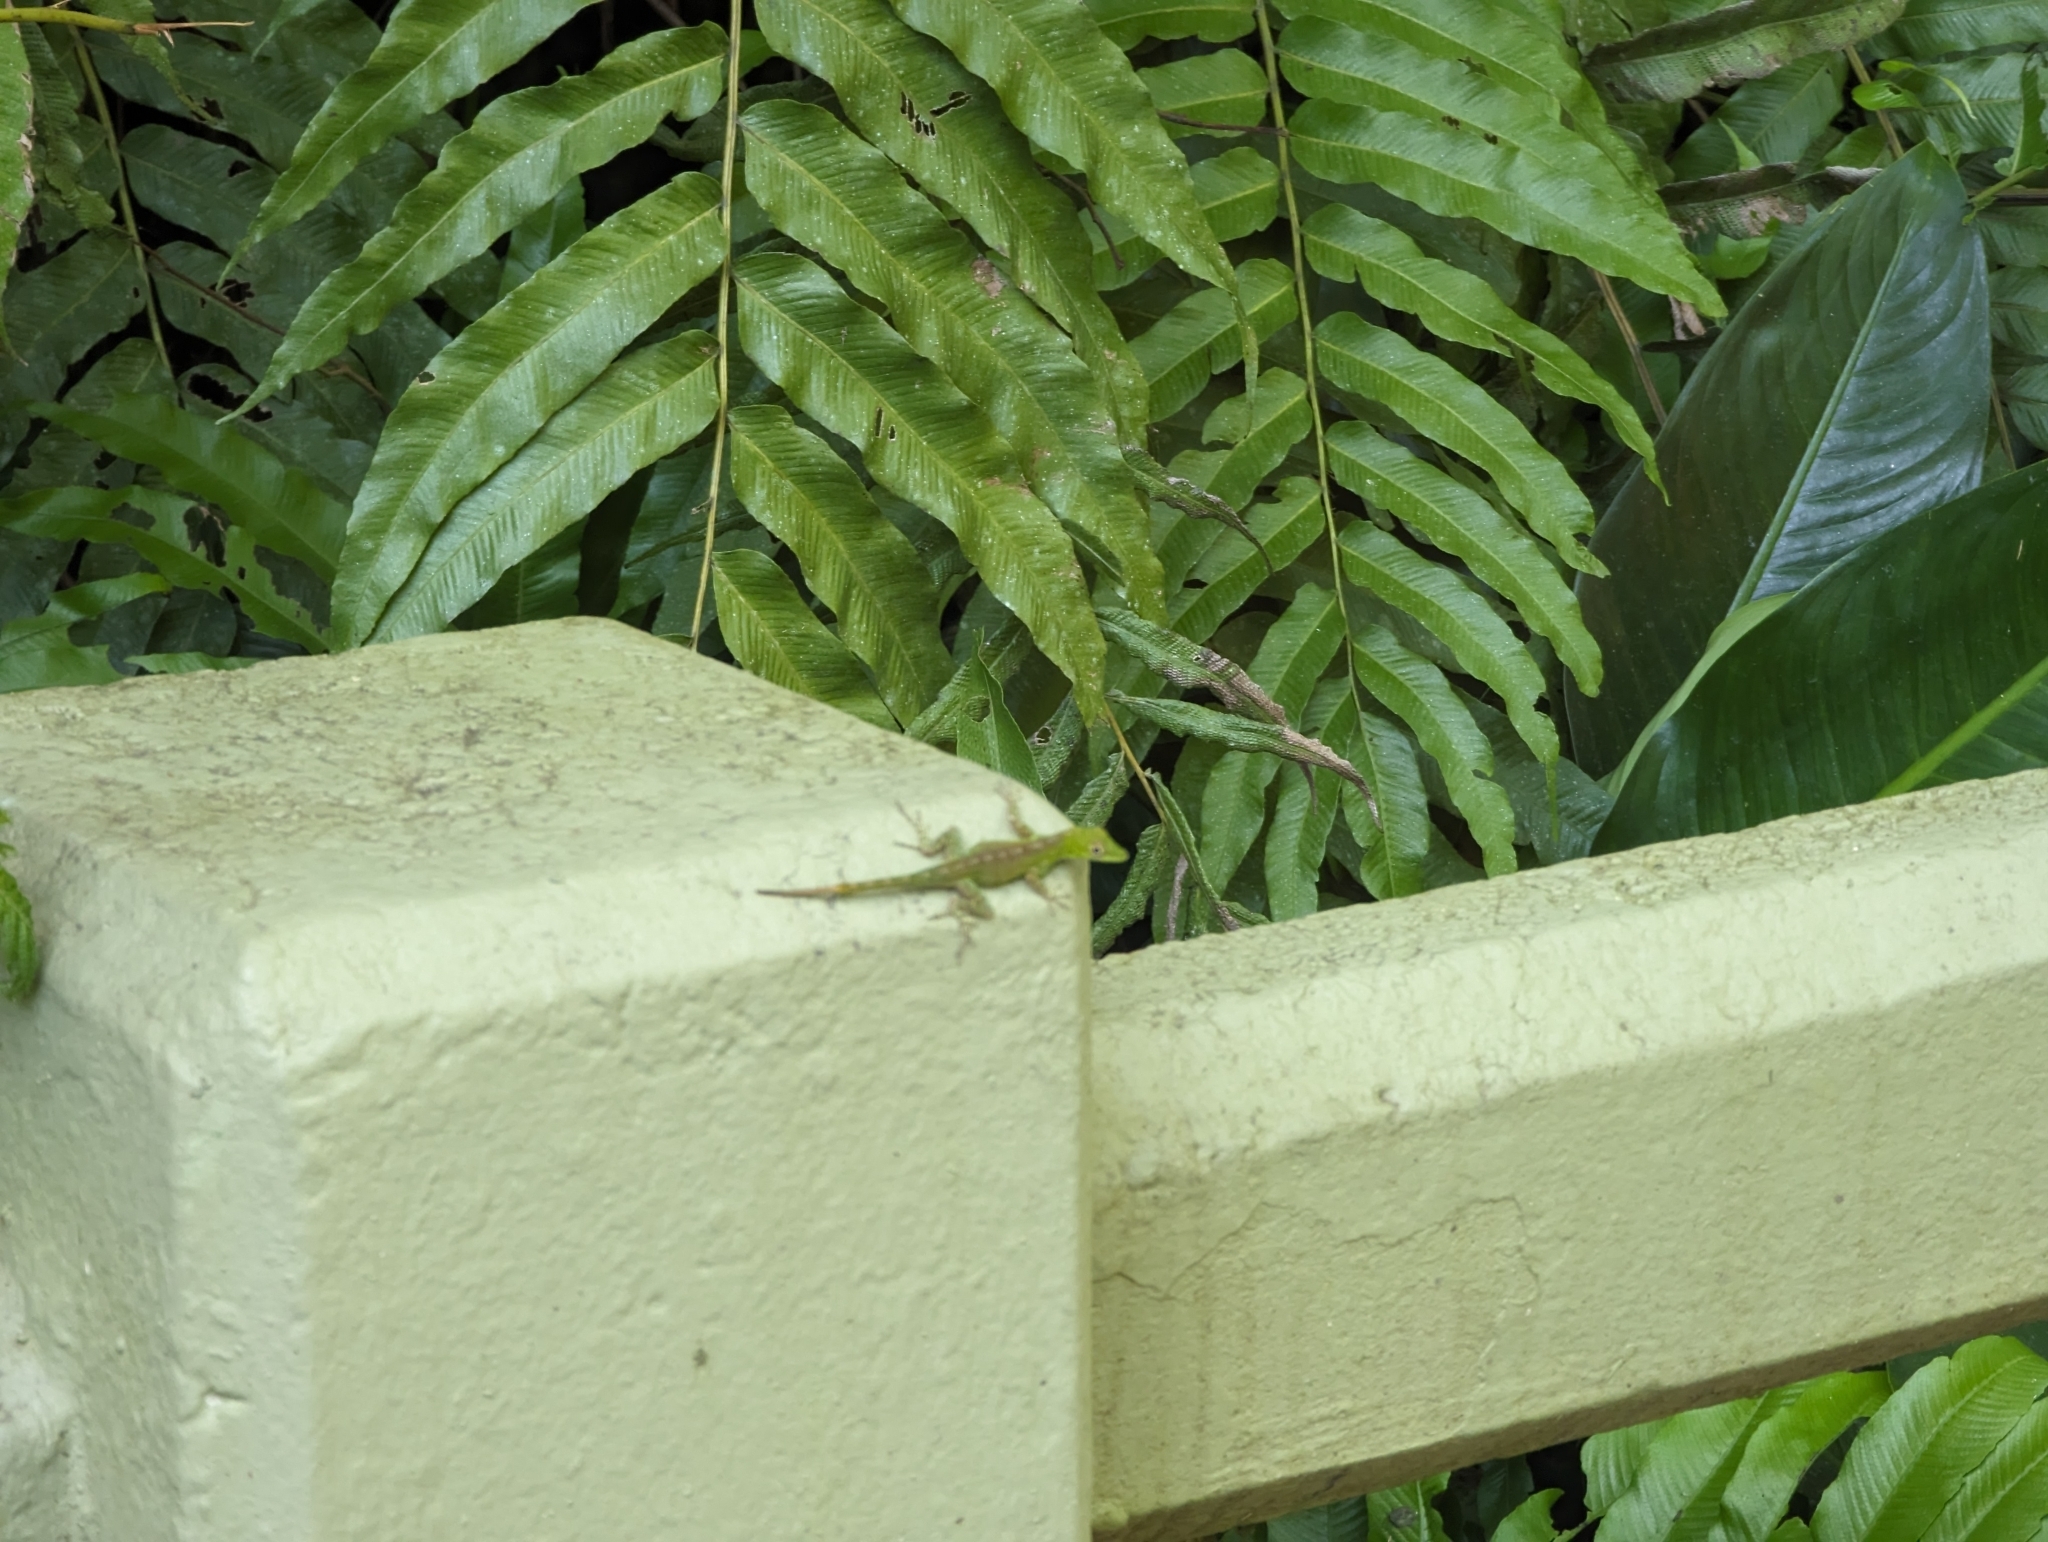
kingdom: Animalia
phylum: Chordata
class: Squamata
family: Dactyloidae
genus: Anolis
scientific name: Anolis evermanni
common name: Emerald anole
